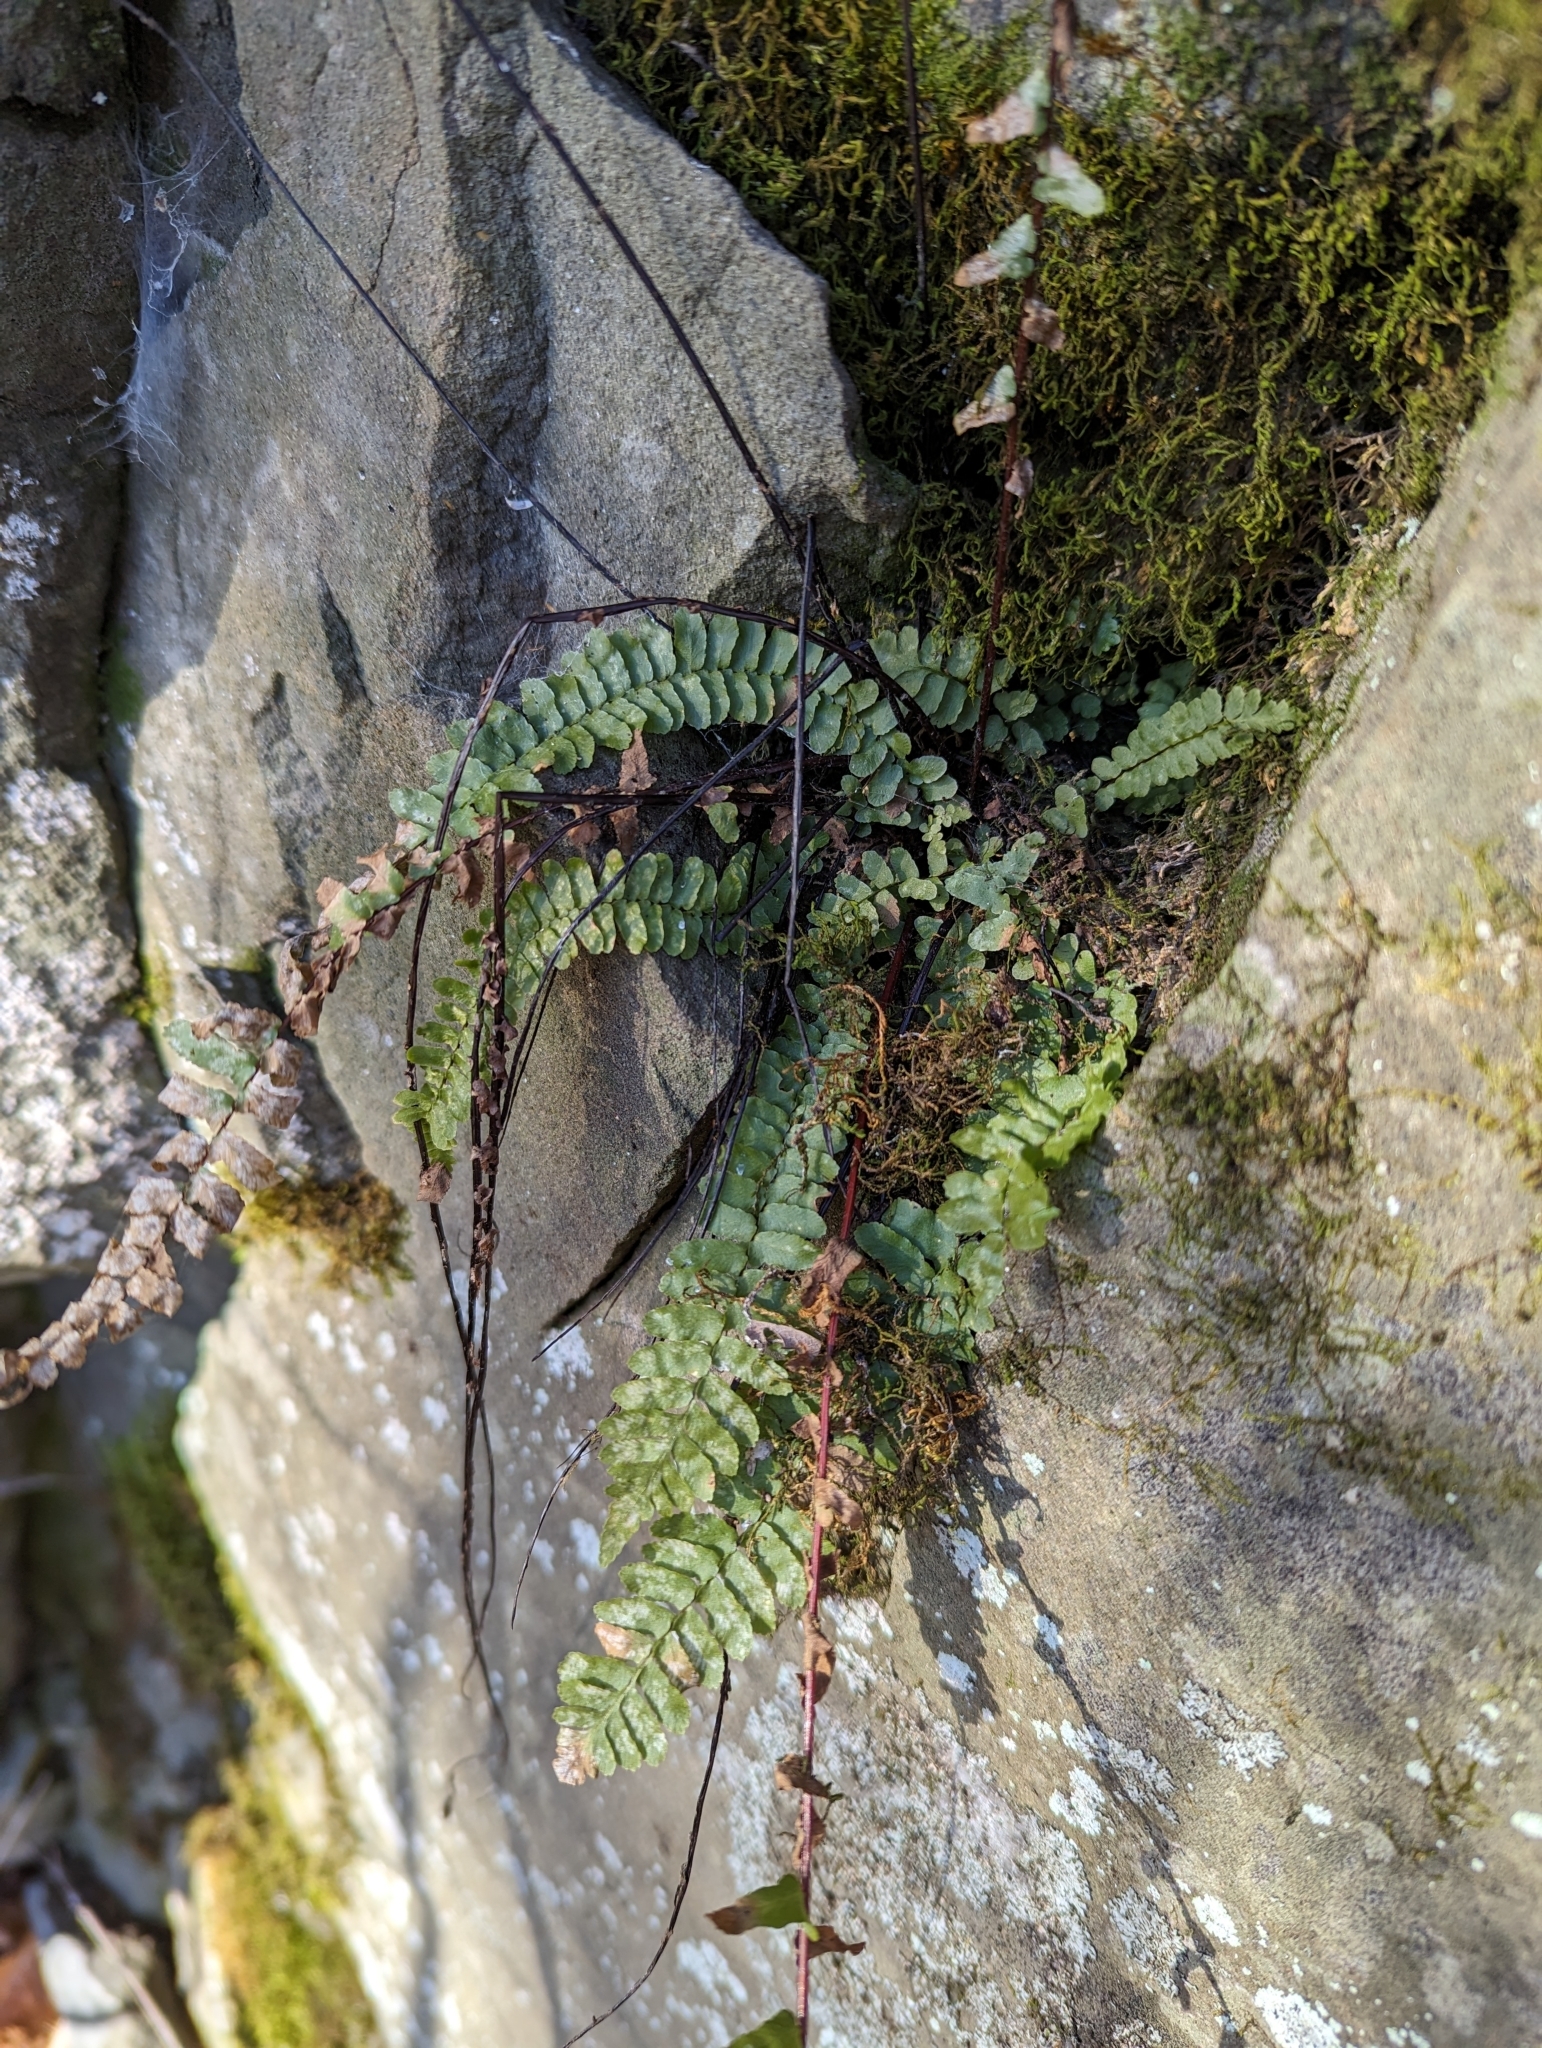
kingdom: Plantae
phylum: Tracheophyta
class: Polypodiopsida
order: Polypodiales
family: Aspleniaceae
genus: Asplenium
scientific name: Asplenium platyneuron
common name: Ebony spleenwort
